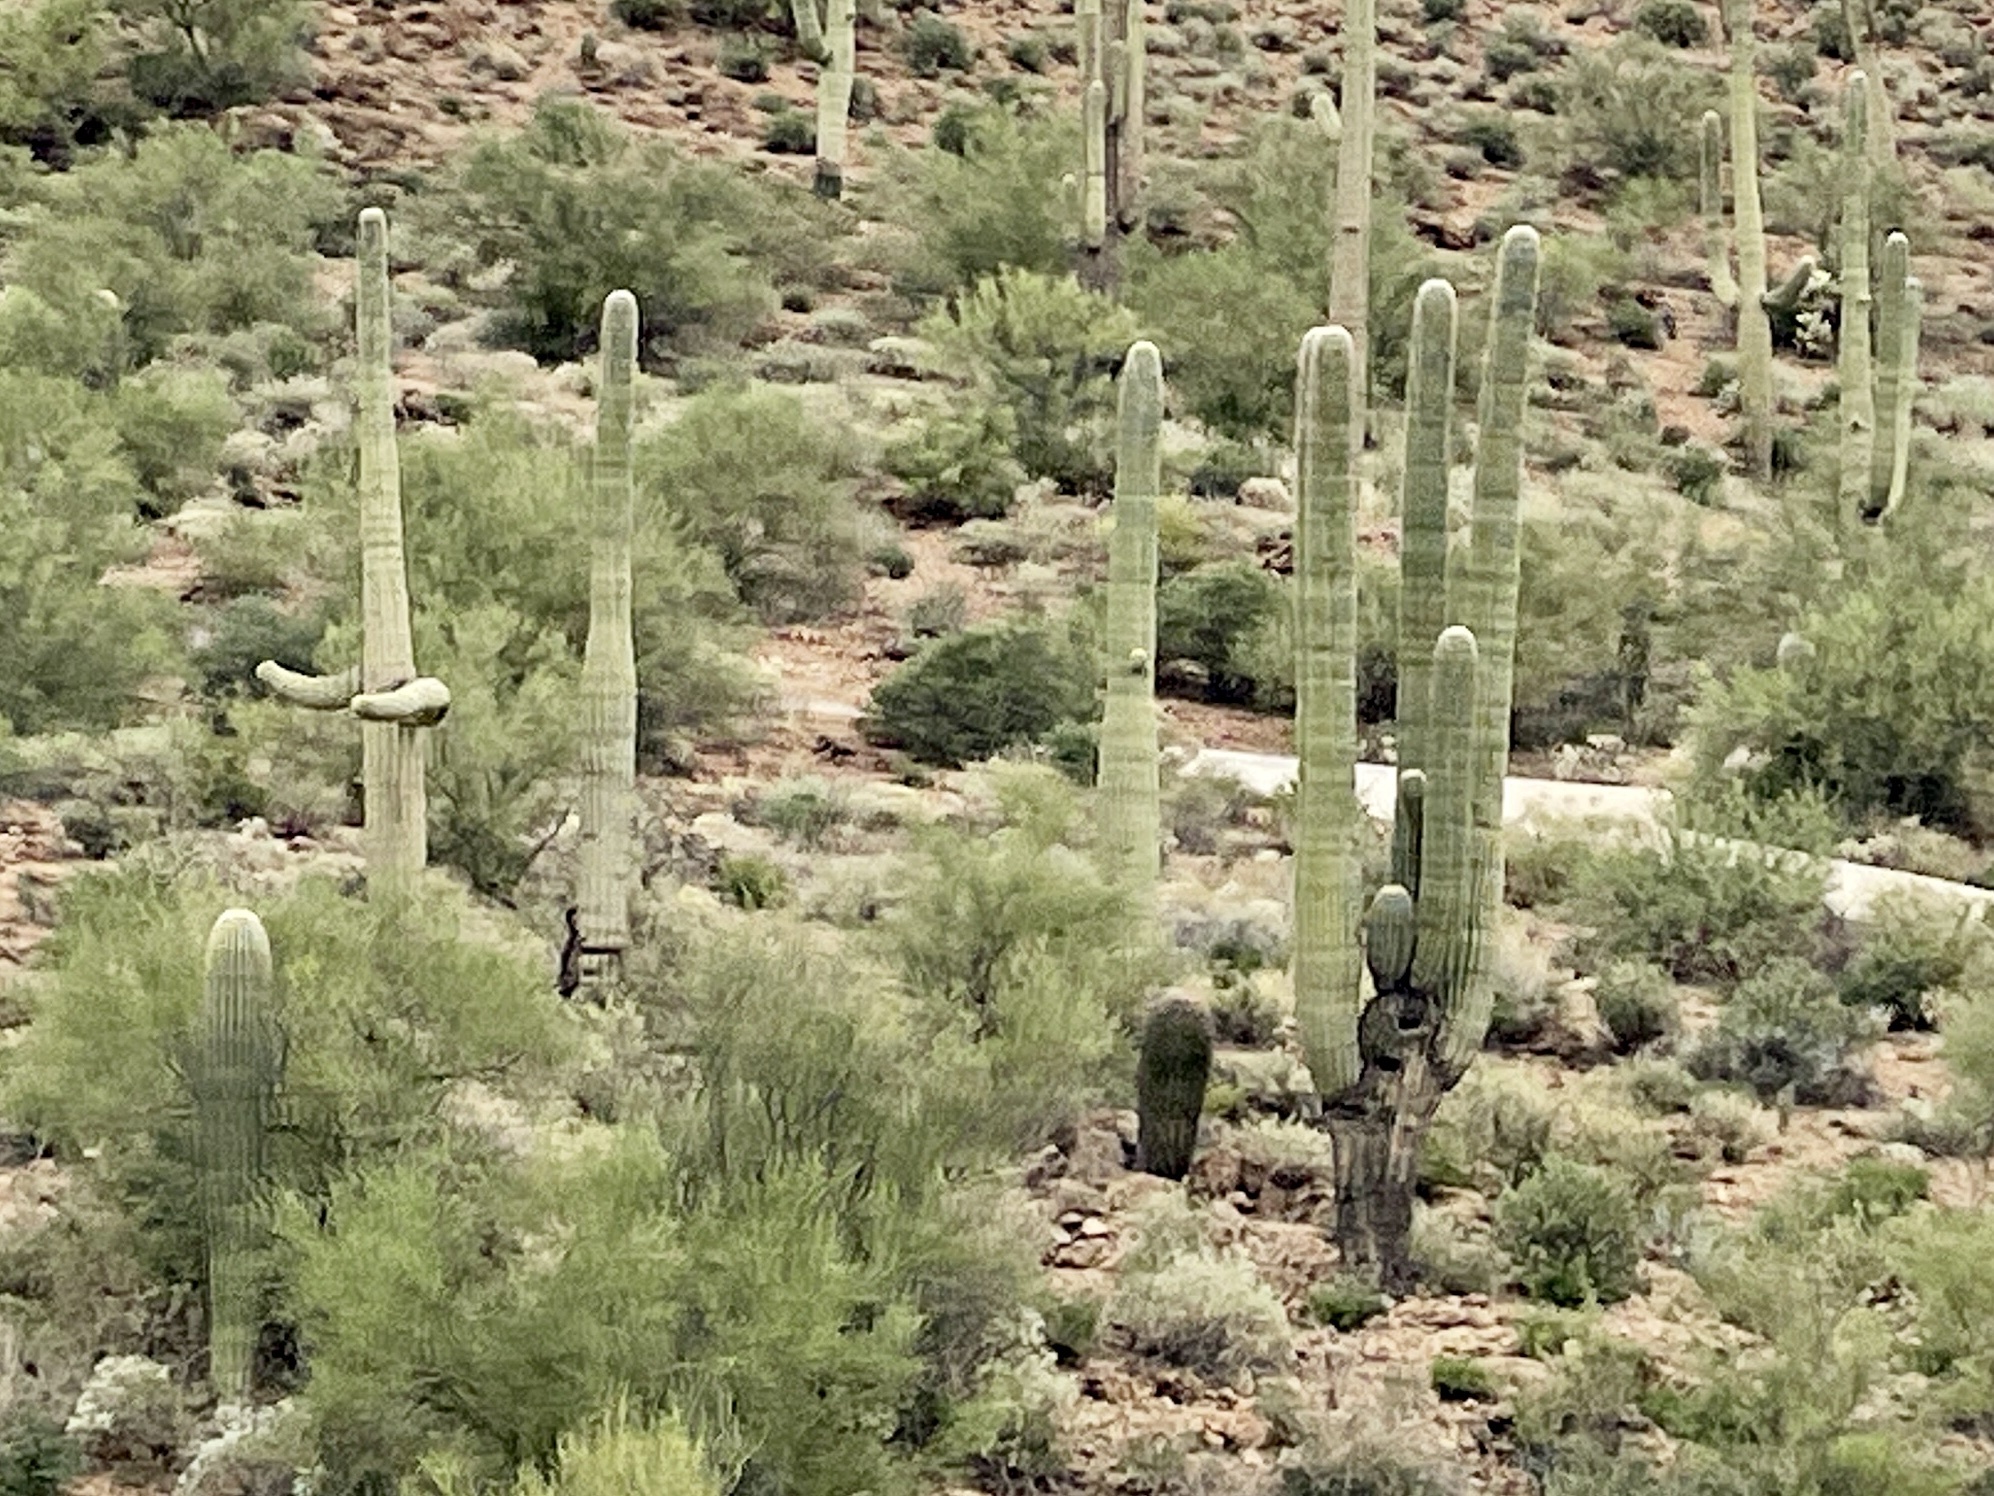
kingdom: Plantae
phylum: Tracheophyta
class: Magnoliopsida
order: Caryophyllales
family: Cactaceae
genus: Carnegiea
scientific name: Carnegiea gigantea
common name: Saguaro
